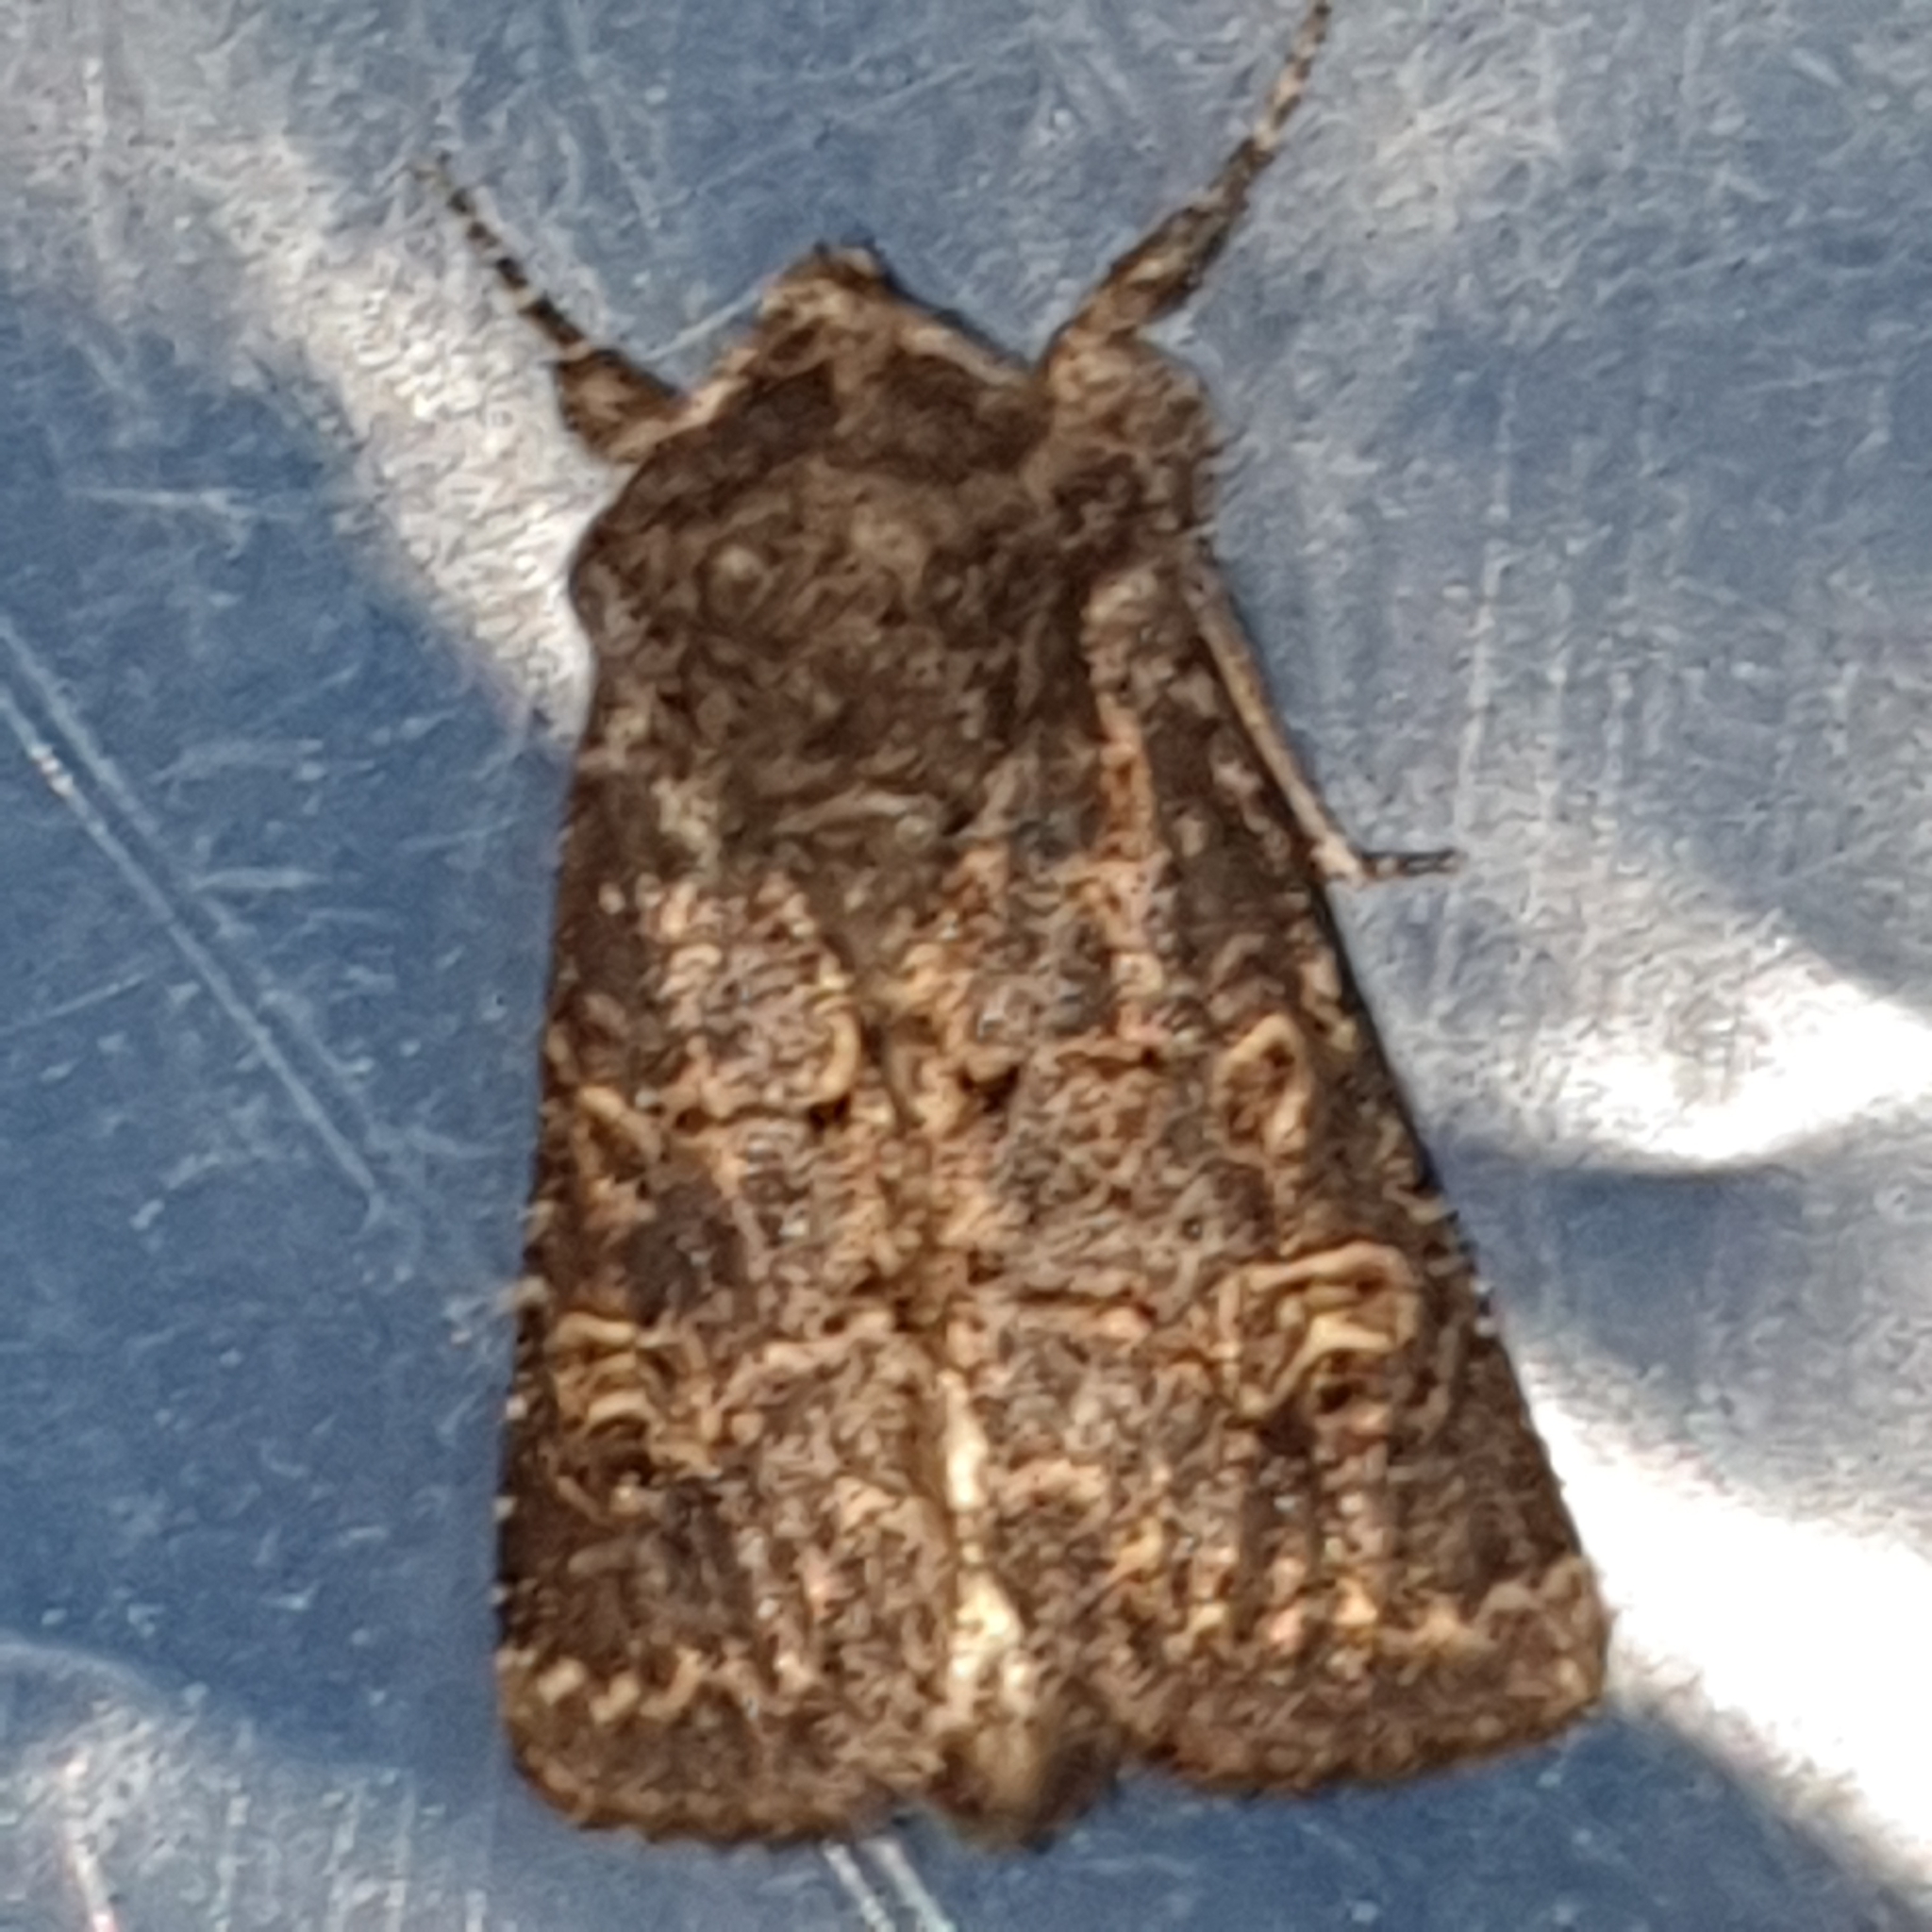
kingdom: Animalia
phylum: Arthropoda
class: Insecta
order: Lepidoptera
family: Noctuidae
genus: Tholera
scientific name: Tholera cespitis
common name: Hedge rustic
